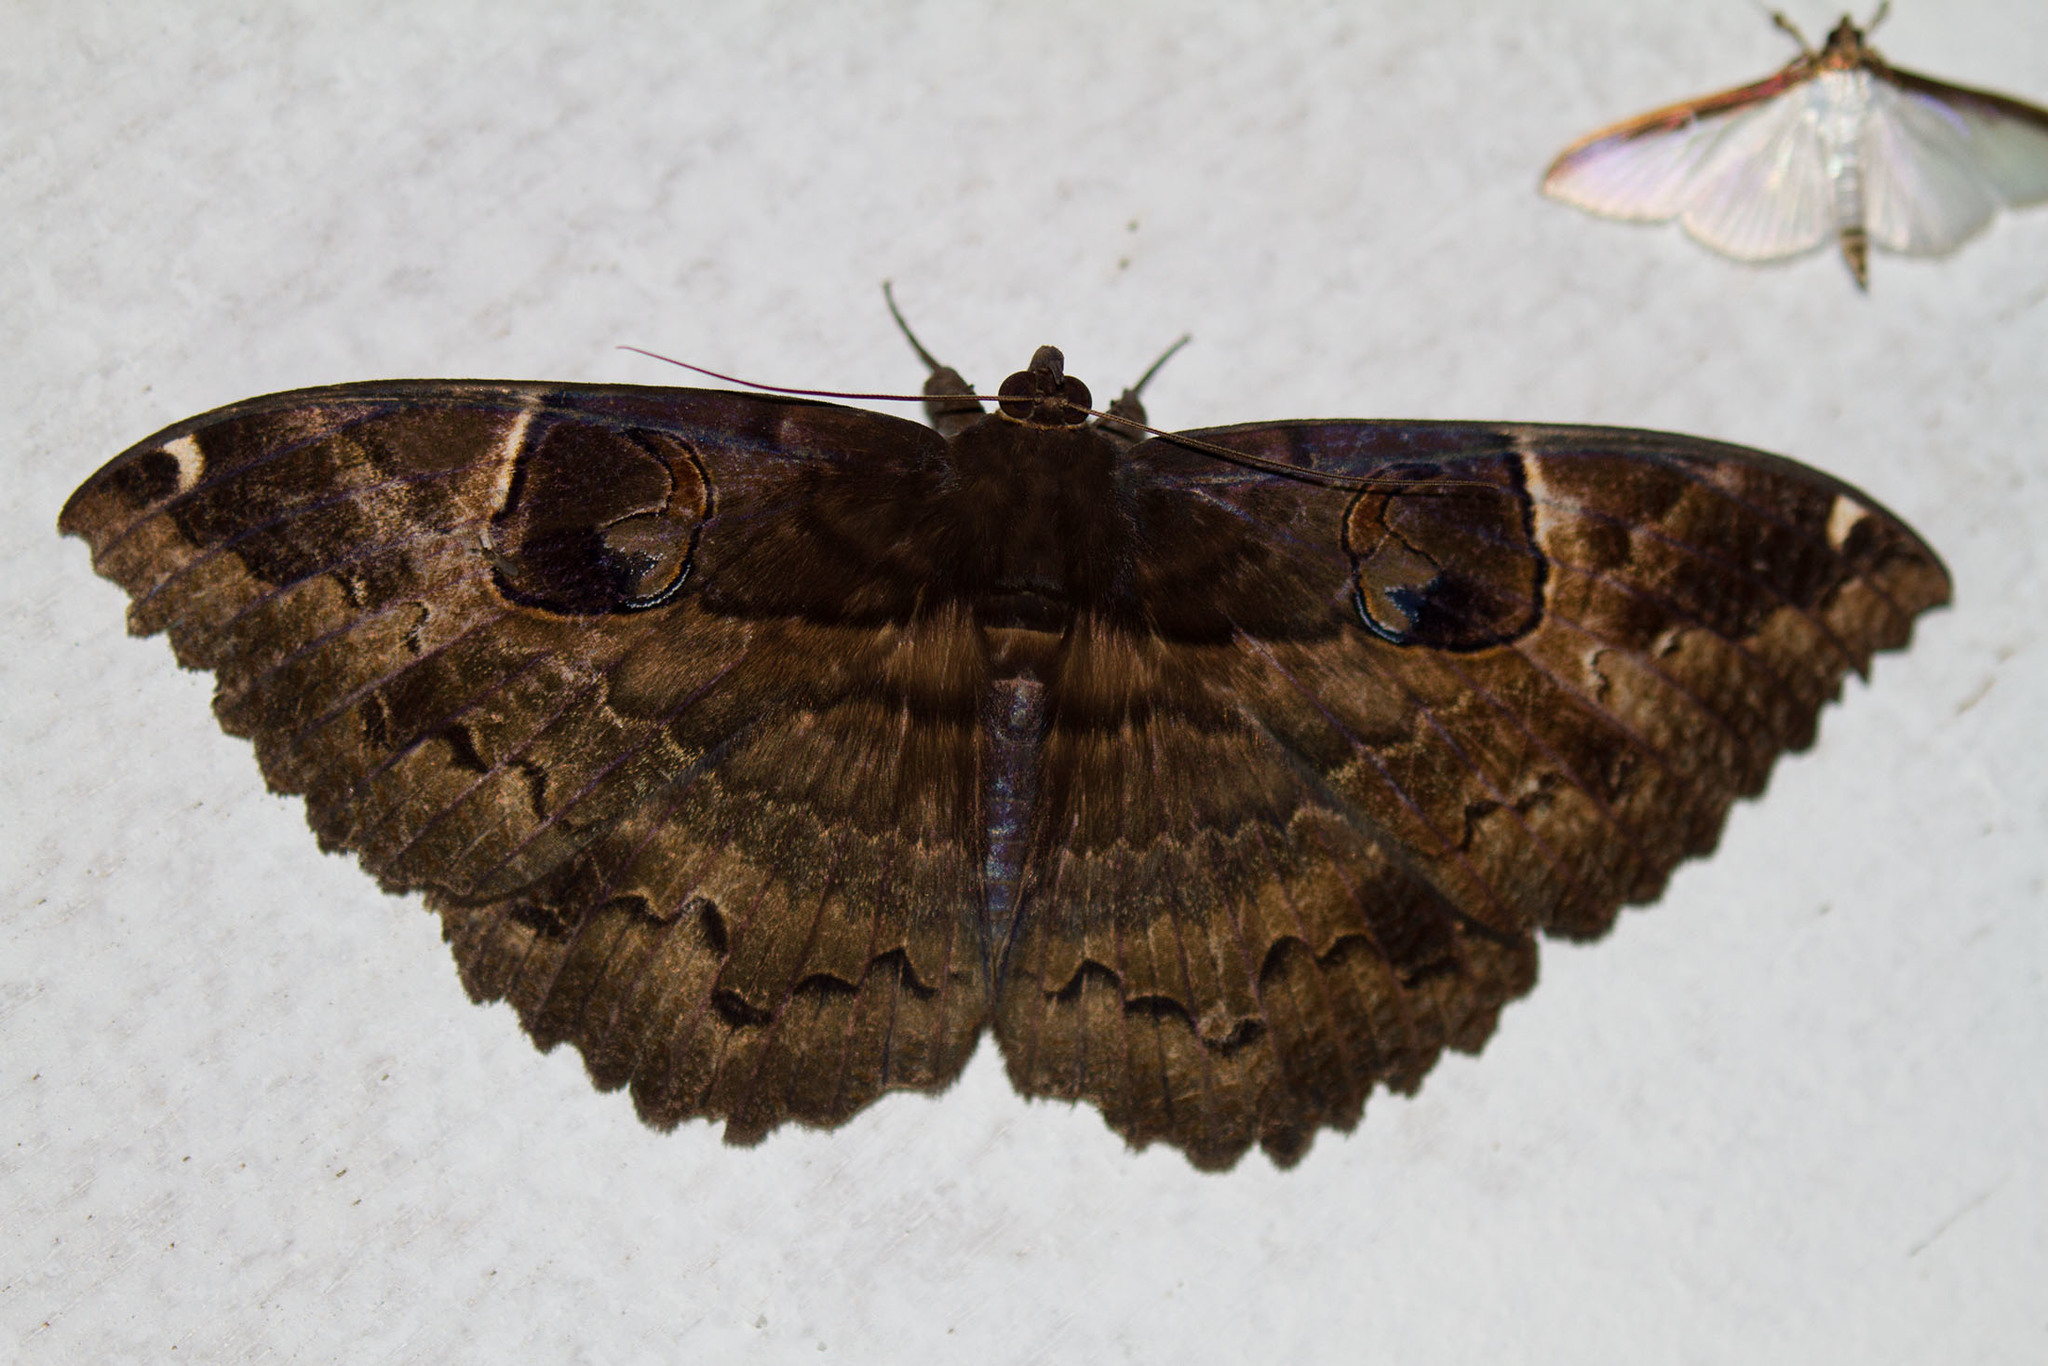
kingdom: Animalia
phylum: Arthropoda
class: Insecta
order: Lepidoptera
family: Erebidae
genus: Erebus
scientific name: Erebus crepuscularis
